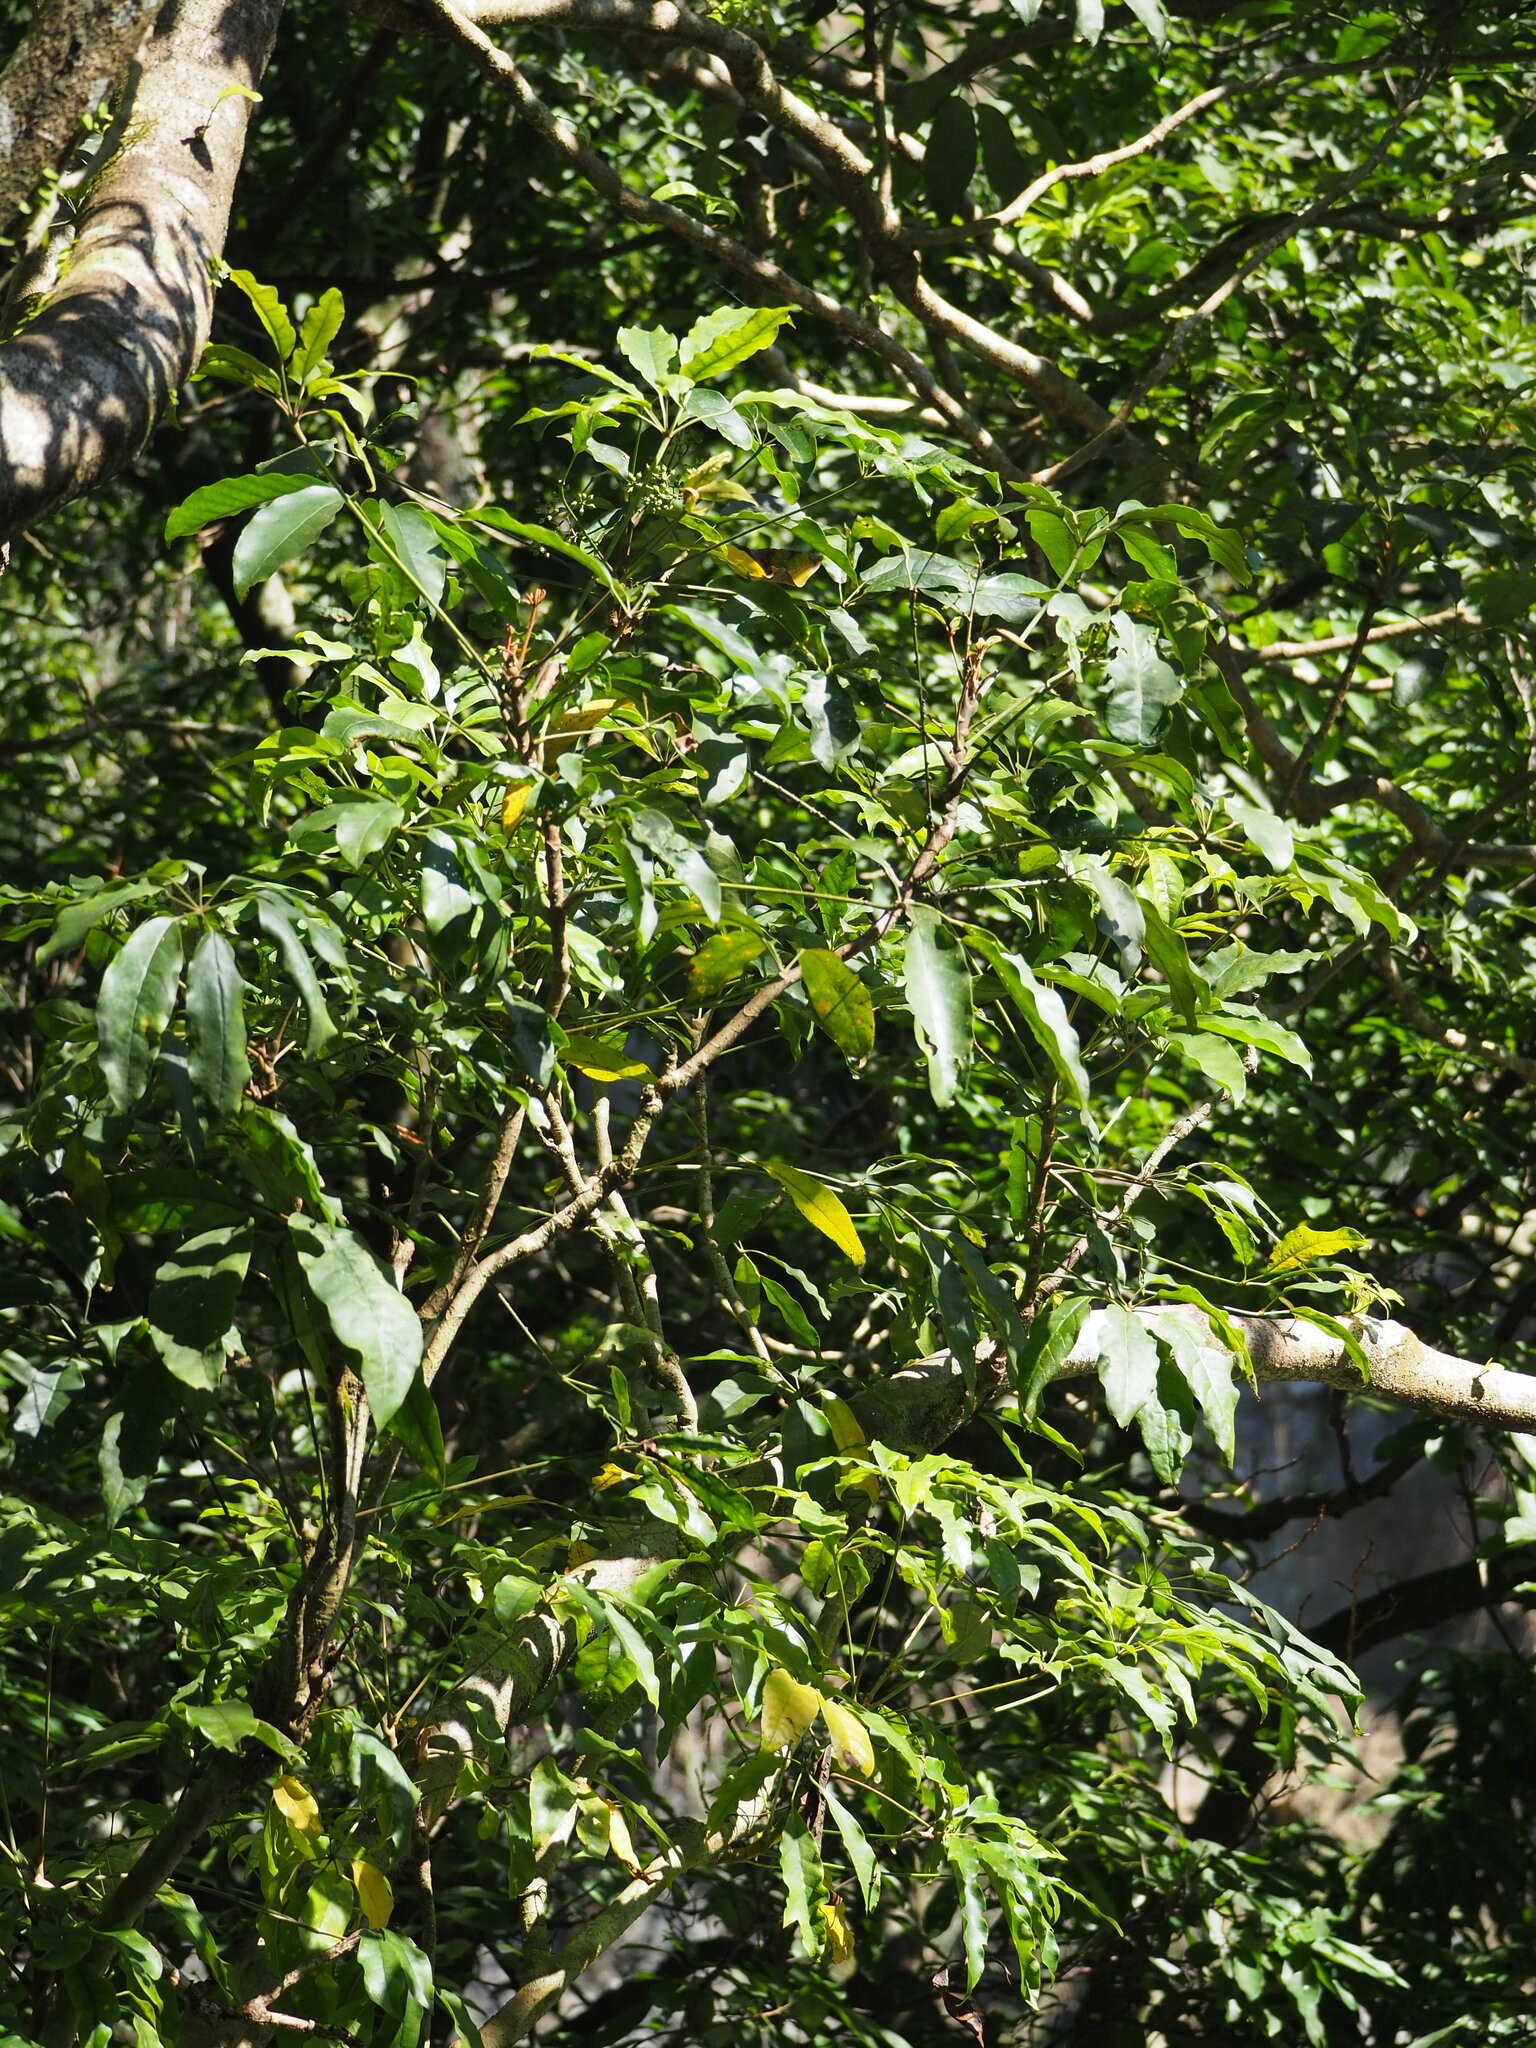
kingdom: Plantae
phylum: Tracheophyta
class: Magnoliopsida
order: Apiales
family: Araliaceae
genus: Heptapleurum
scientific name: Heptapleurum heptaphyllum
